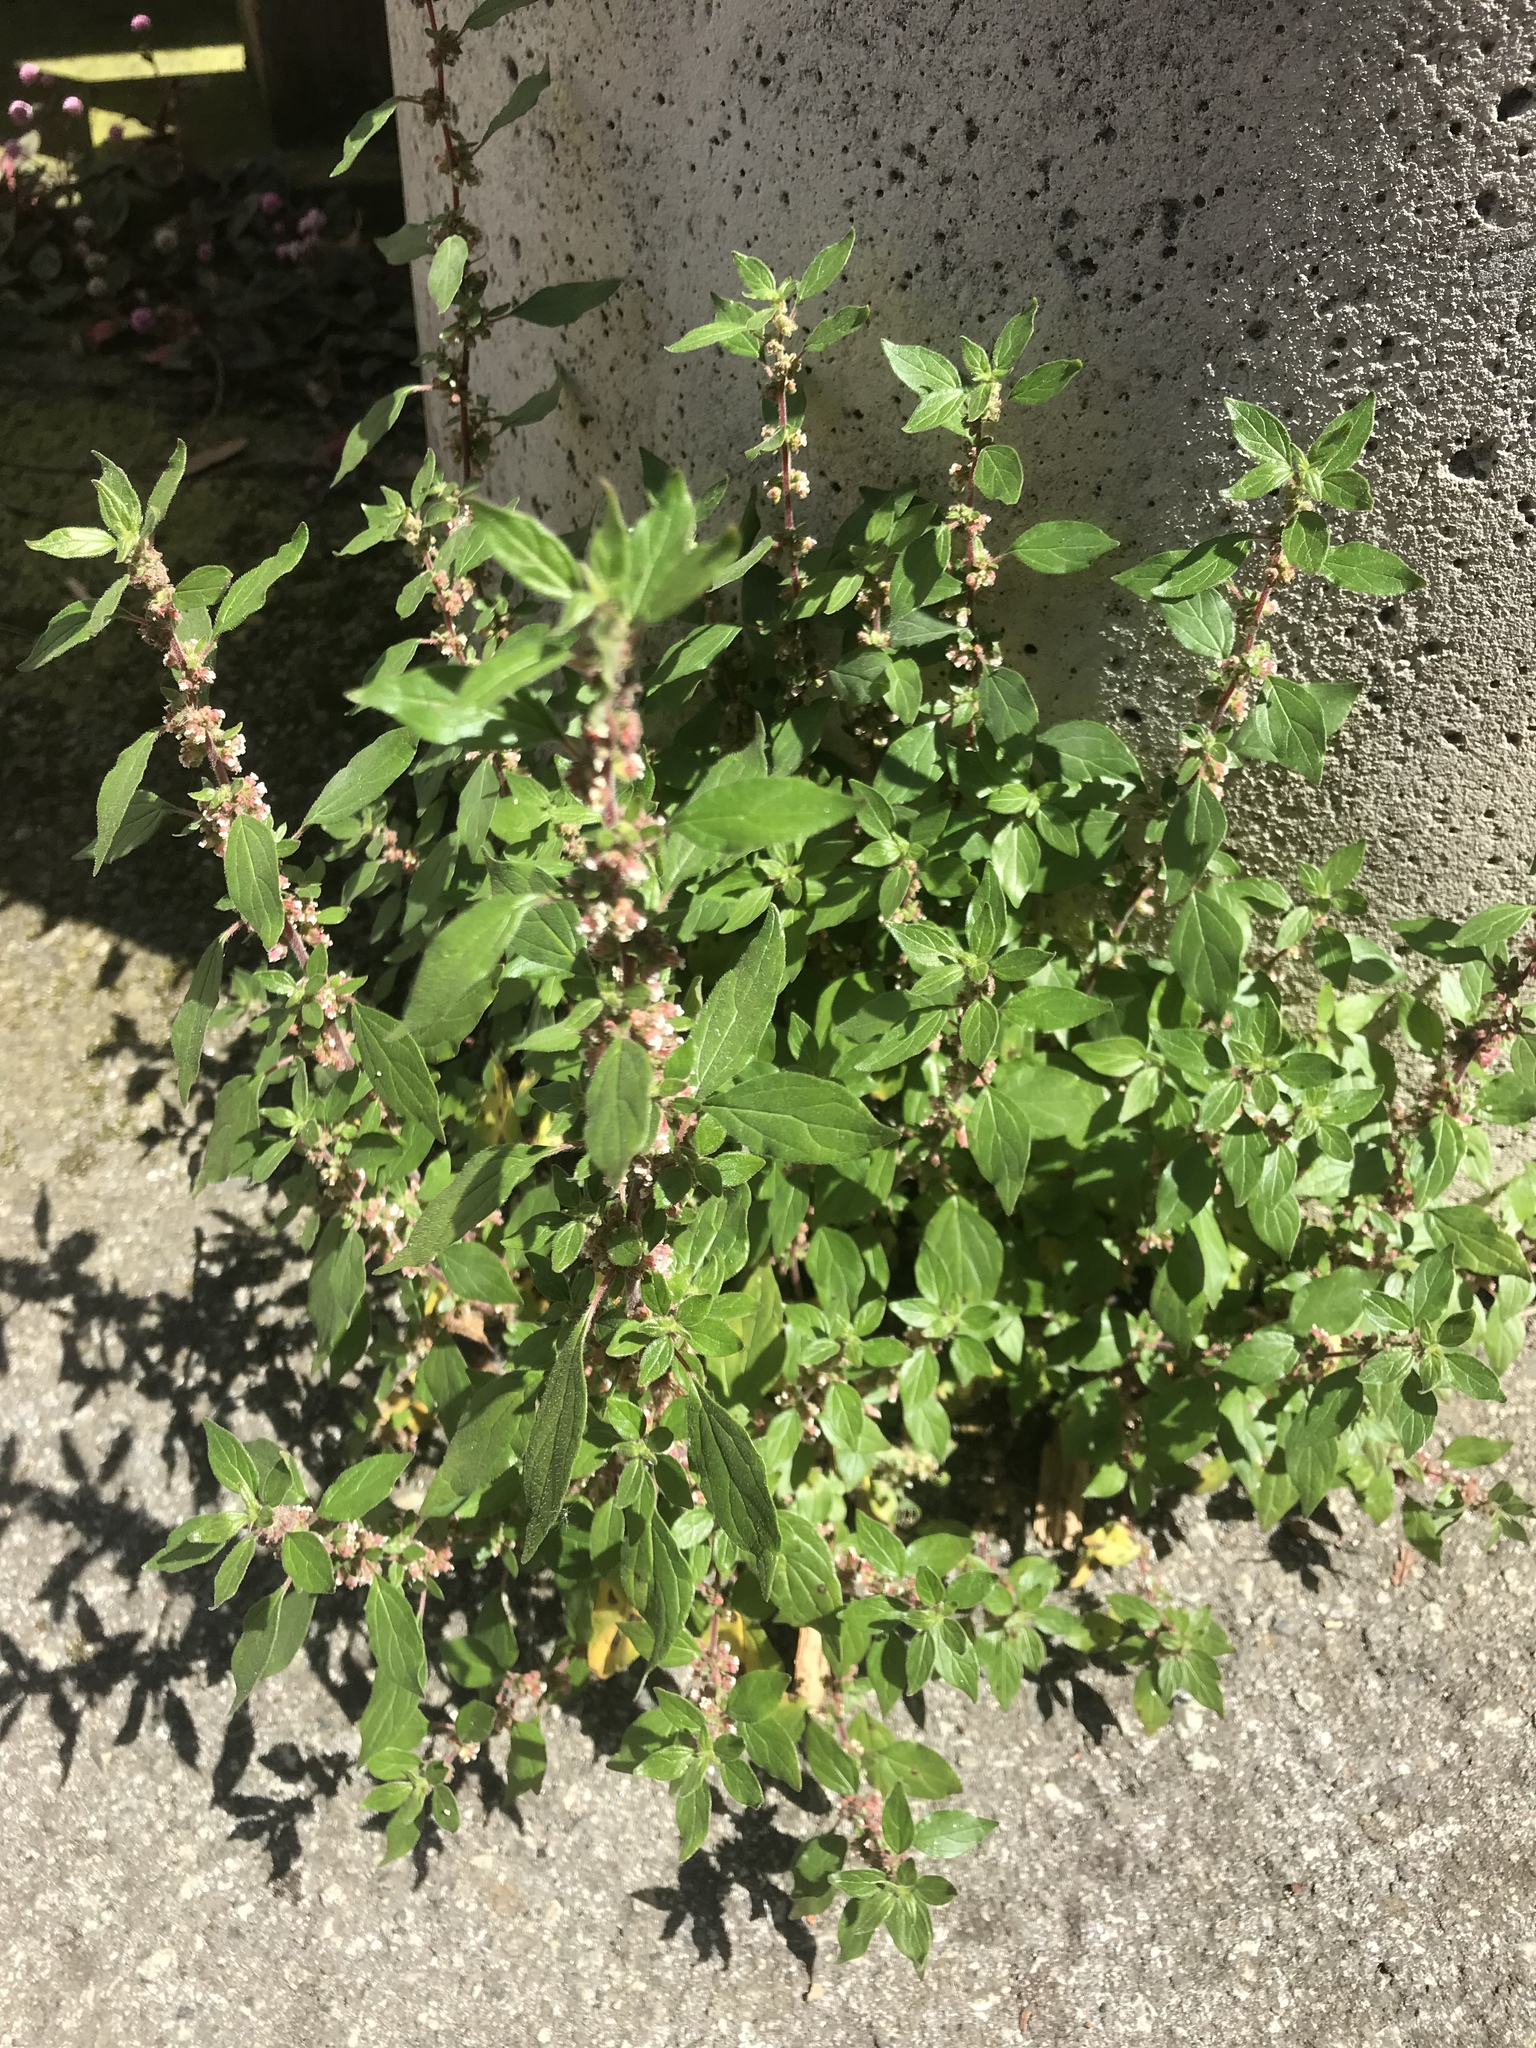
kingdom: Plantae
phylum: Tracheophyta
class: Magnoliopsida
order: Rosales
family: Urticaceae
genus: Parietaria
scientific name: Parietaria judaica
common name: Pellitory-of-the-wall
